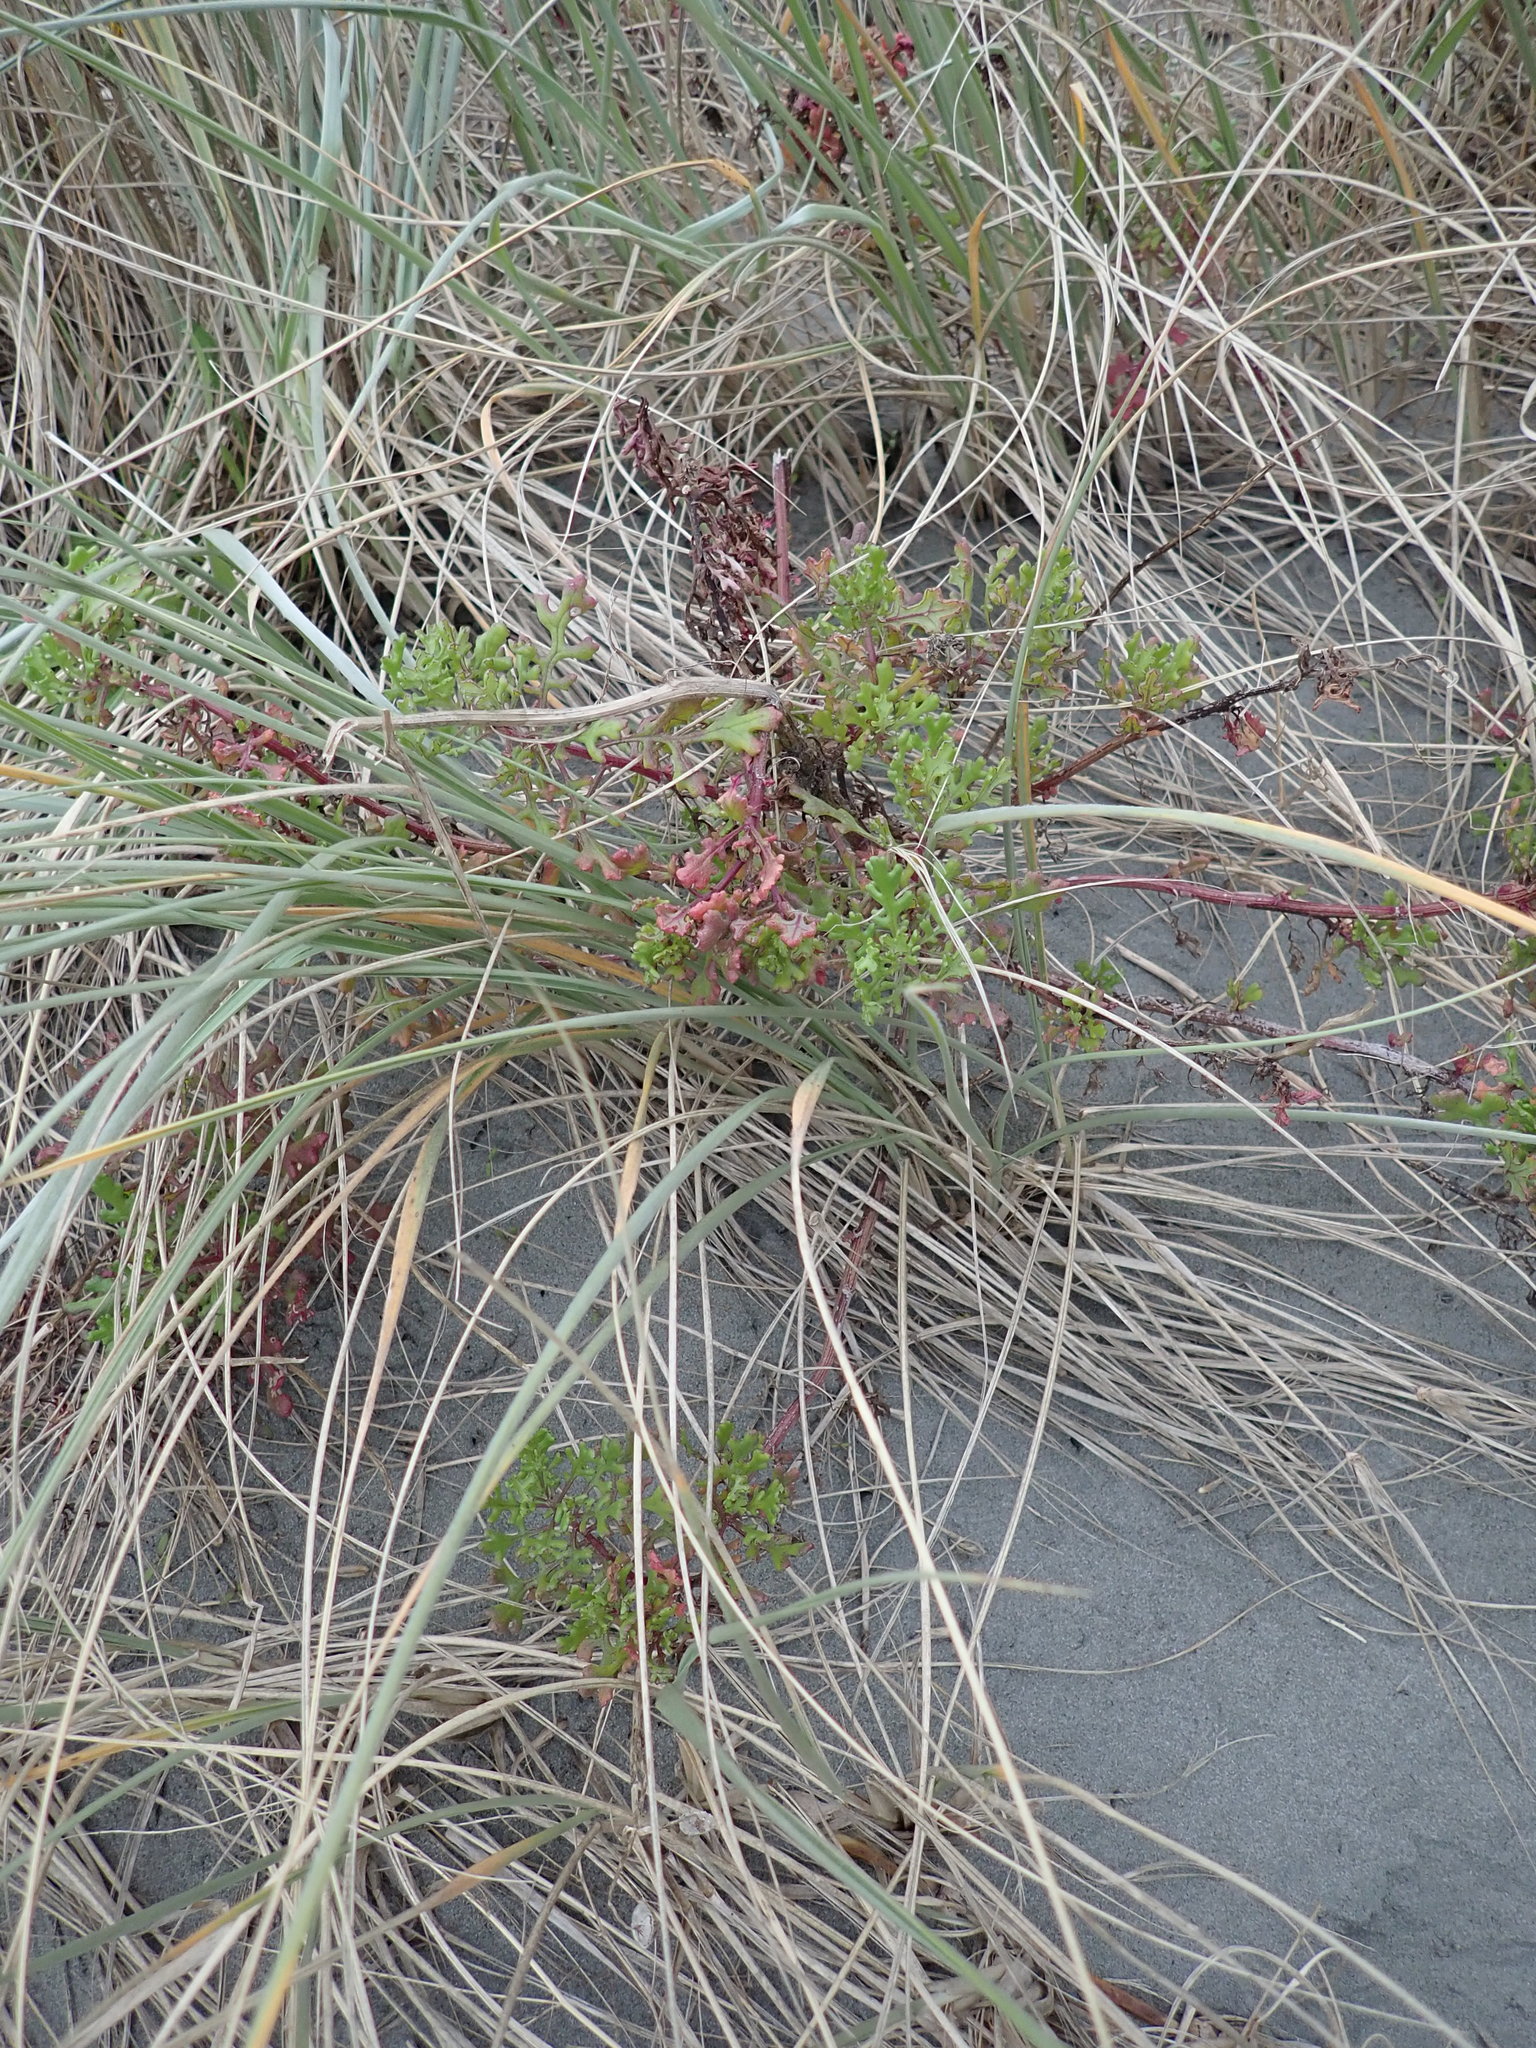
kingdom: Plantae
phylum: Tracheophyta
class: Magnoliopsida
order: Asterales
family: Asteraceae
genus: Senecio
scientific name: Senecio elegans
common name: Purple groundsel
